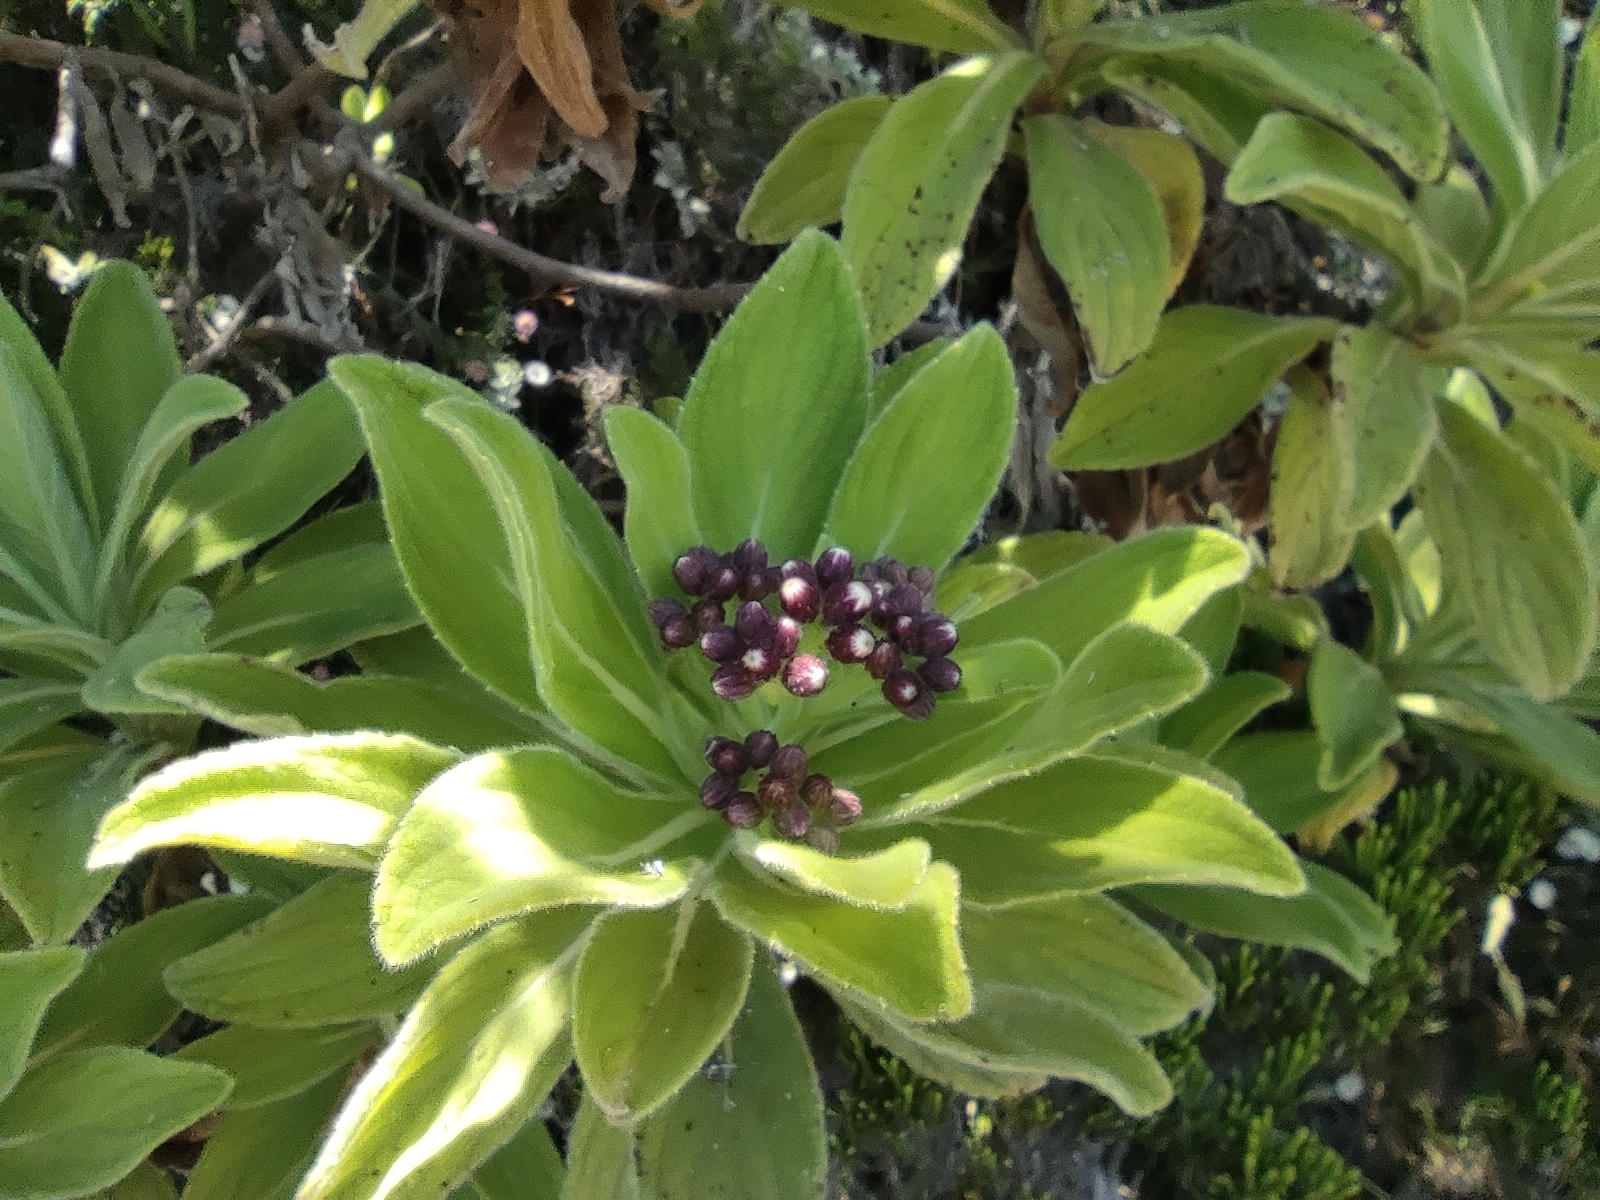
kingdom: Plantae
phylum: Tracheophyta
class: Magnoliopsida
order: Asterales
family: Asteraceae
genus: Psiadia
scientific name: Psiadia anchusifolia
